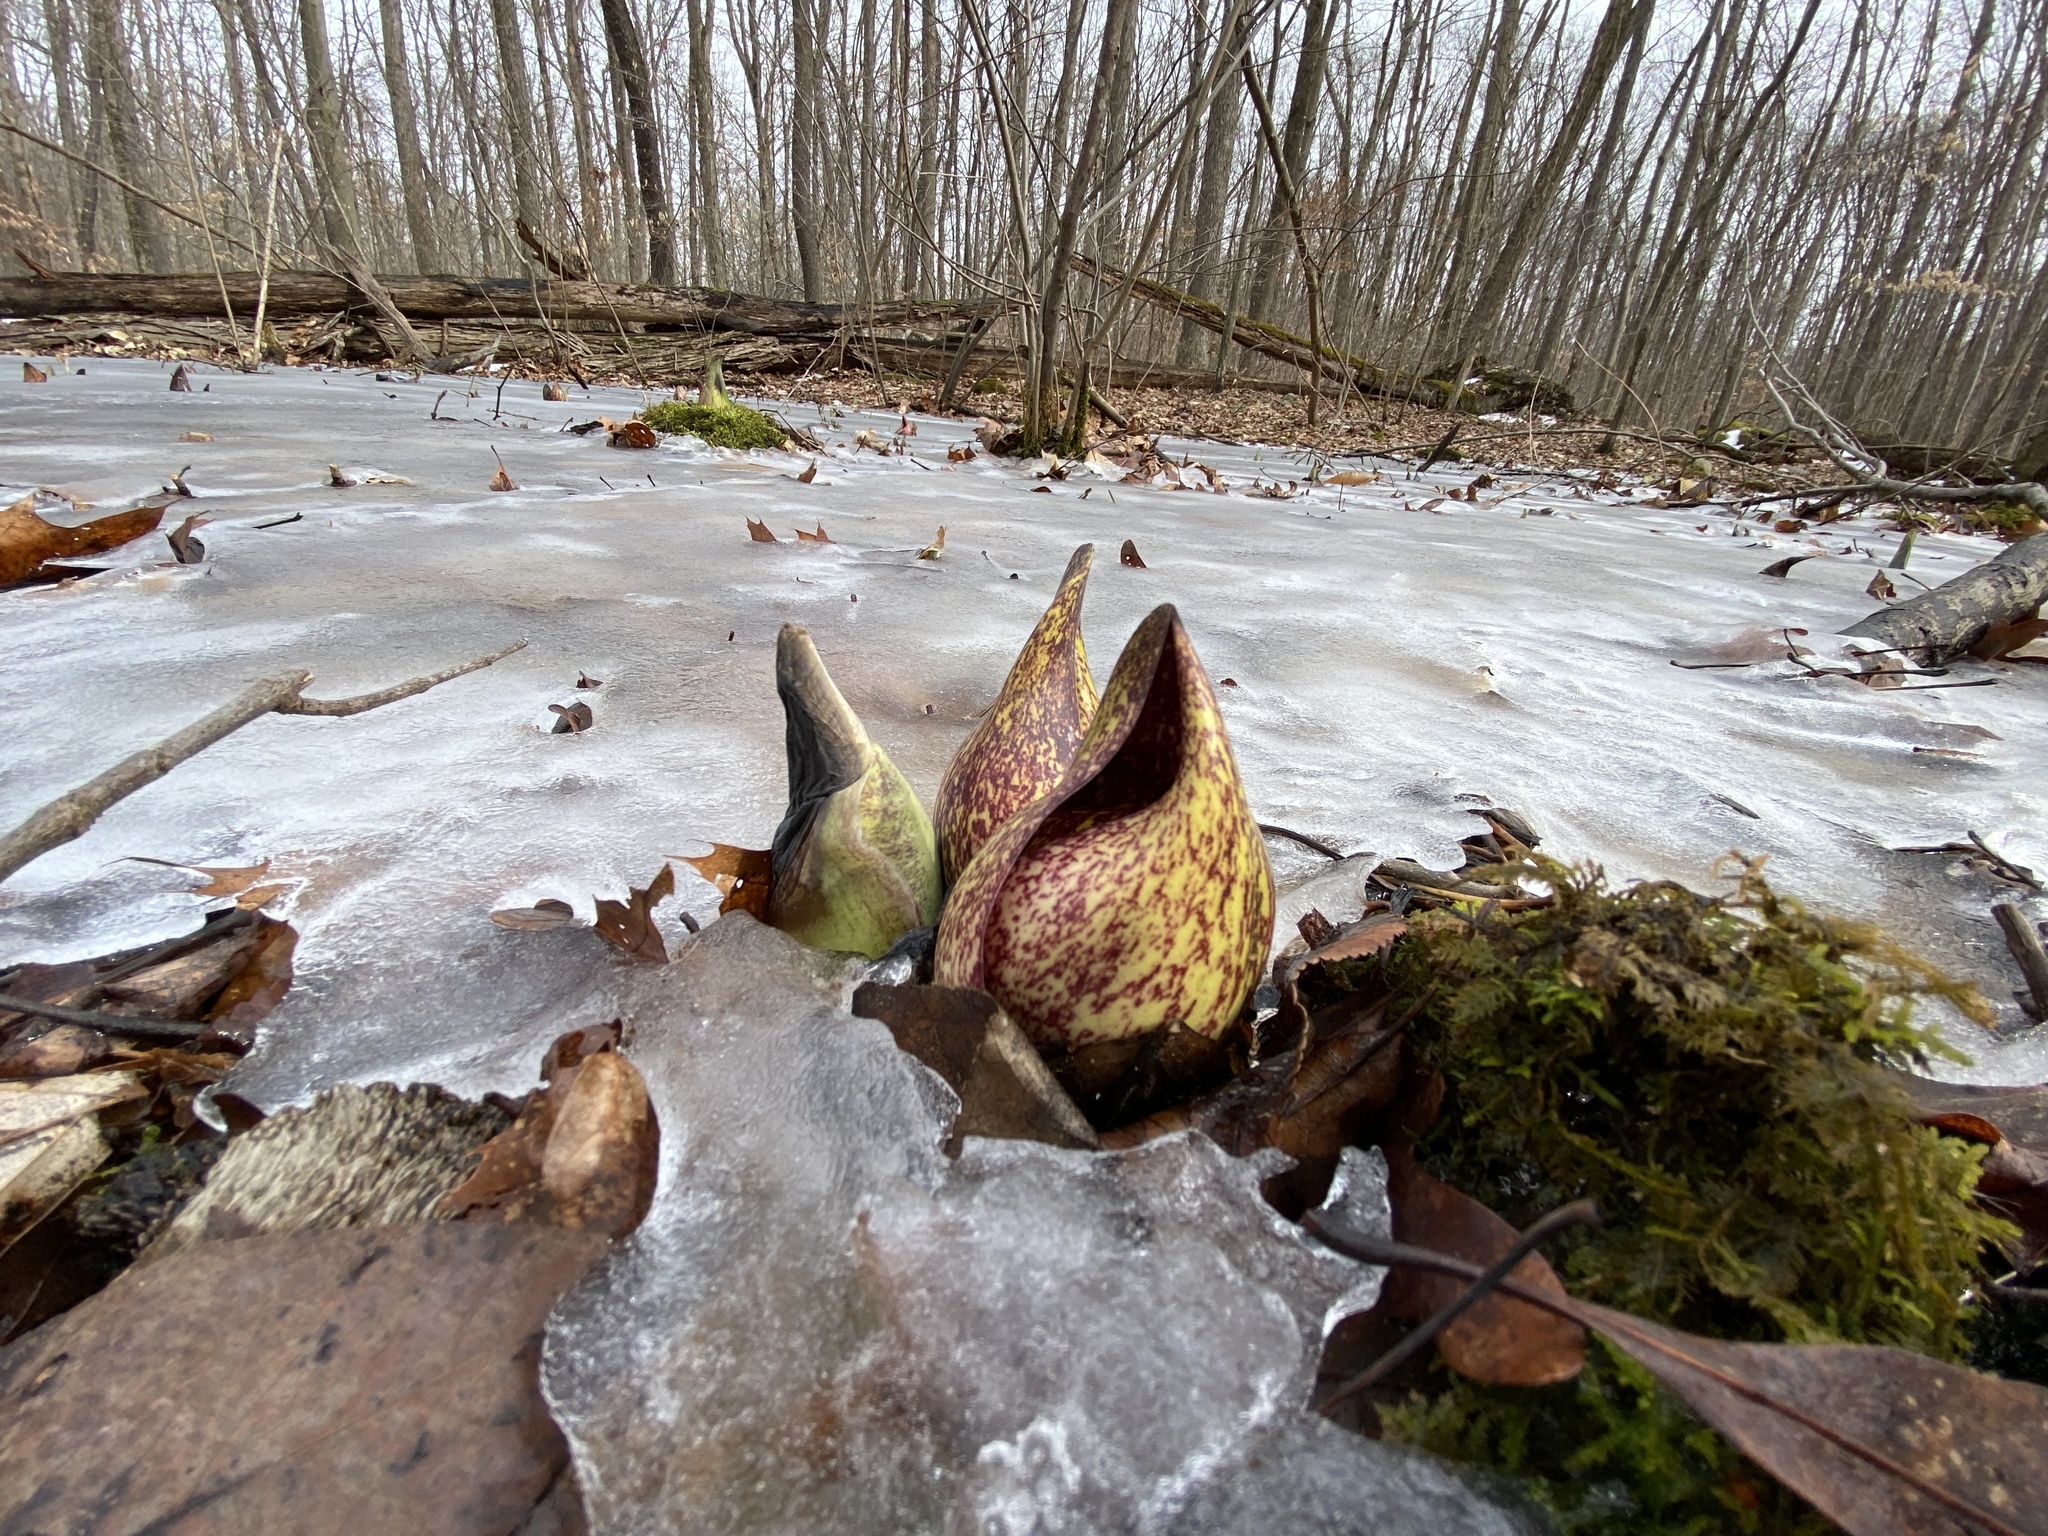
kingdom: Plantae
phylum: Tracheophyta
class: Liliopsida
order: Alismatales
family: Araceae
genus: Symplocarpus
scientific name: Symplocarpus foetidus
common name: Eastern skunk cabbage
